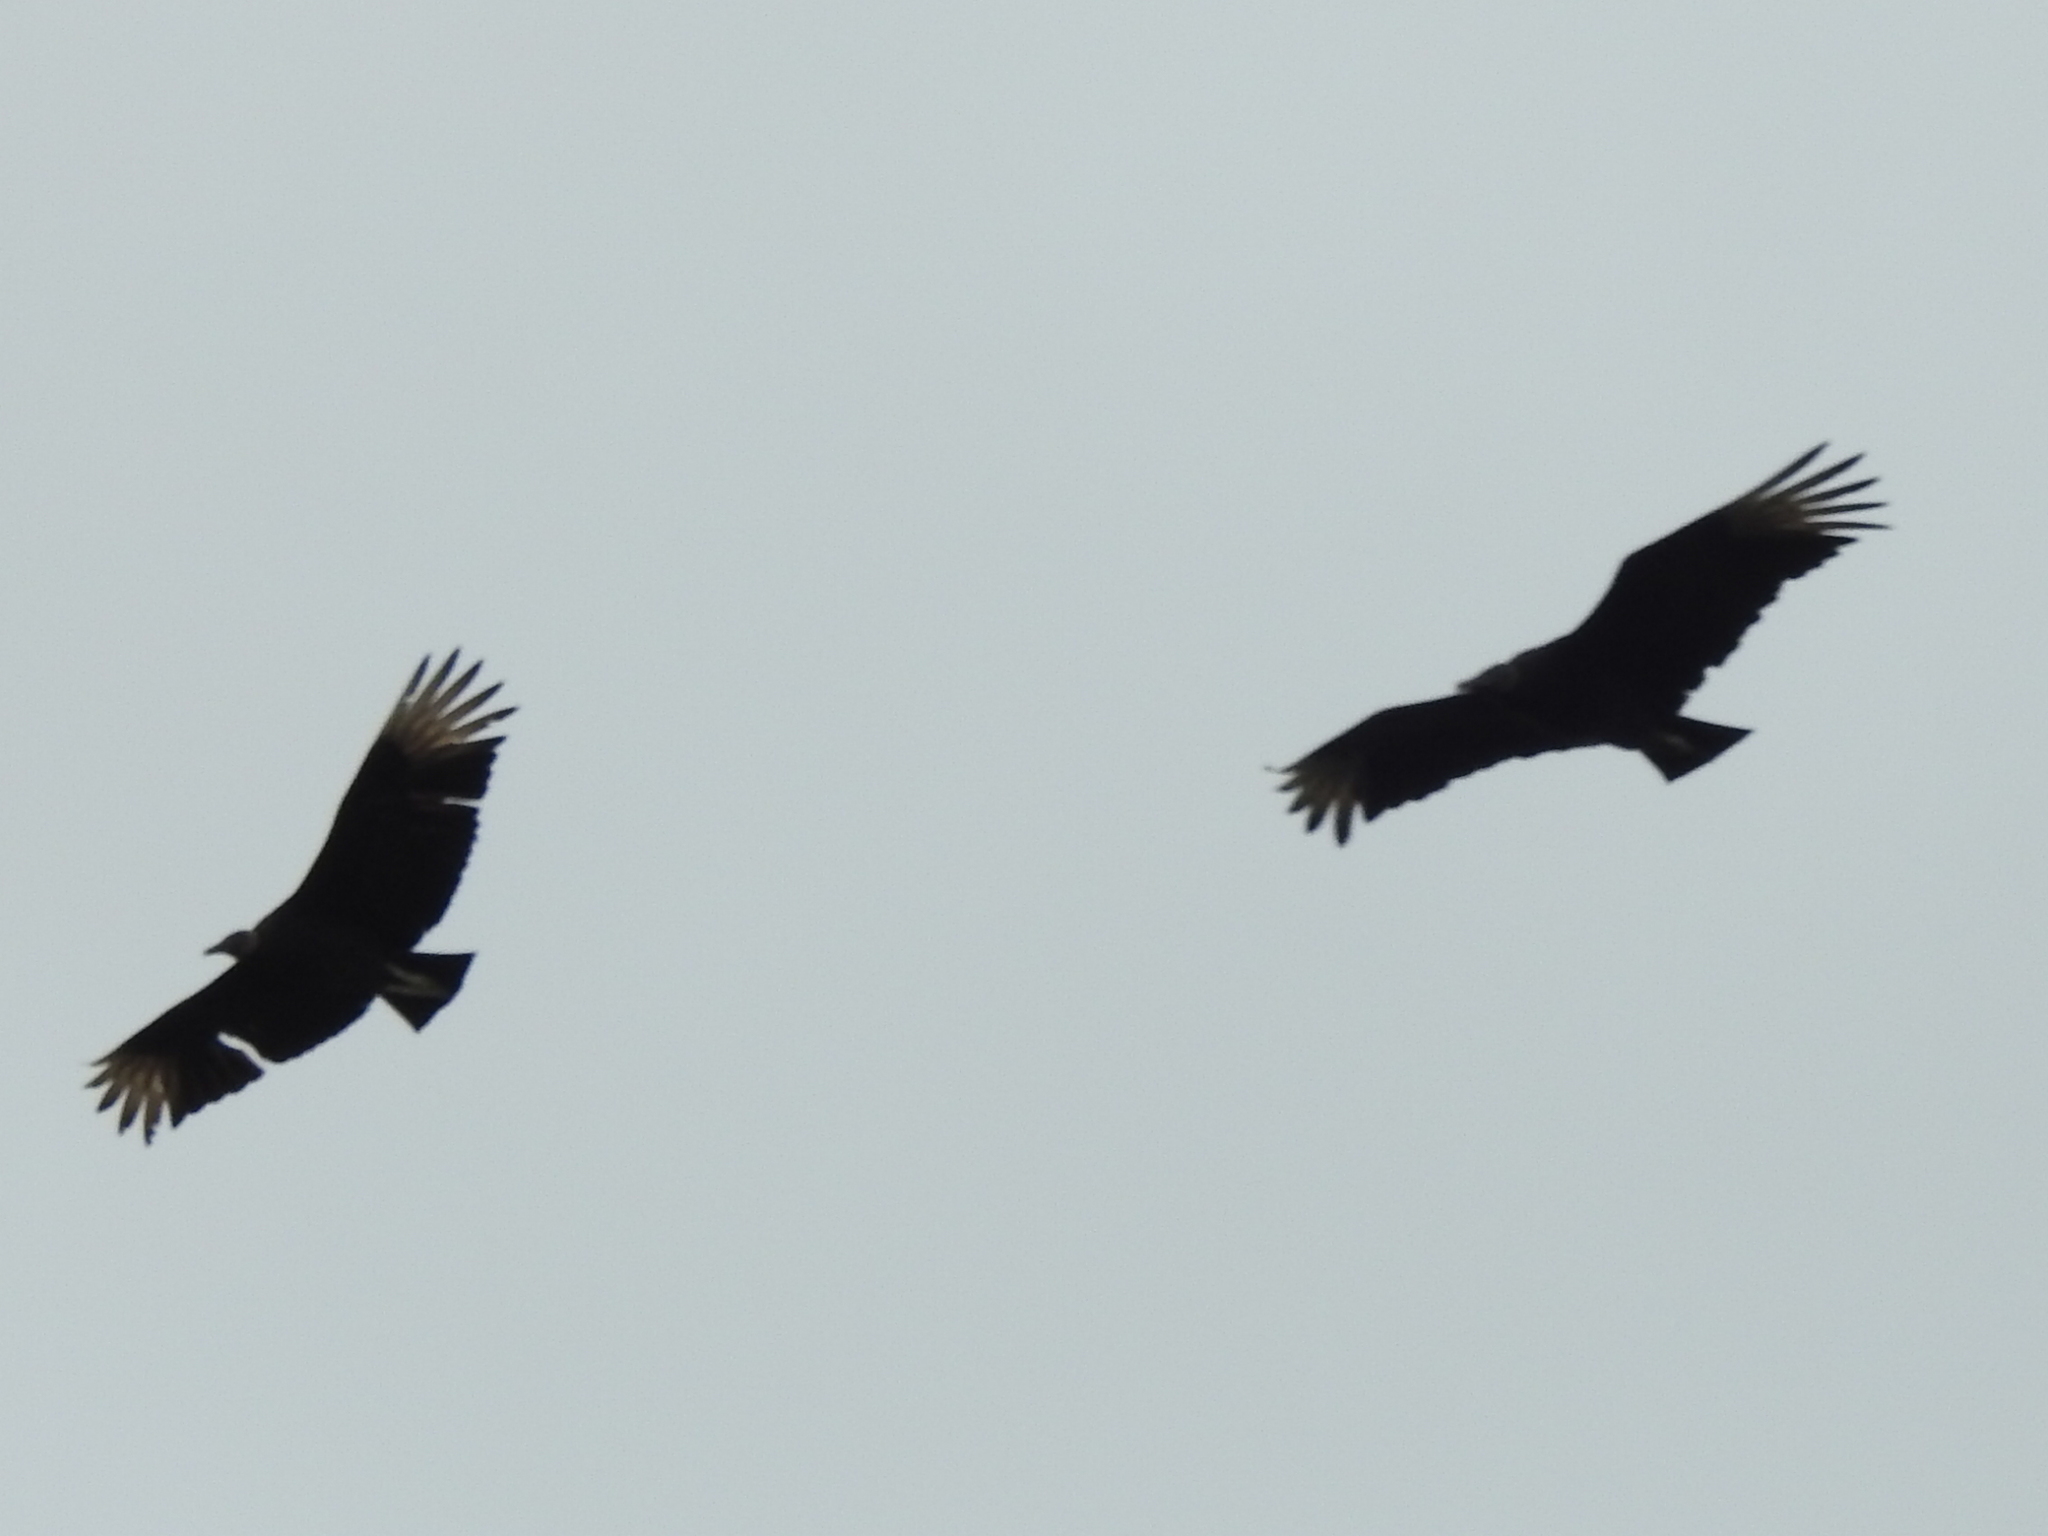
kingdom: Animalia
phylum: Chordata
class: Aves
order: Accipitriformes
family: Cathartidae
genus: Coragyps
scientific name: Coragyps atratus
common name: Black vulture
